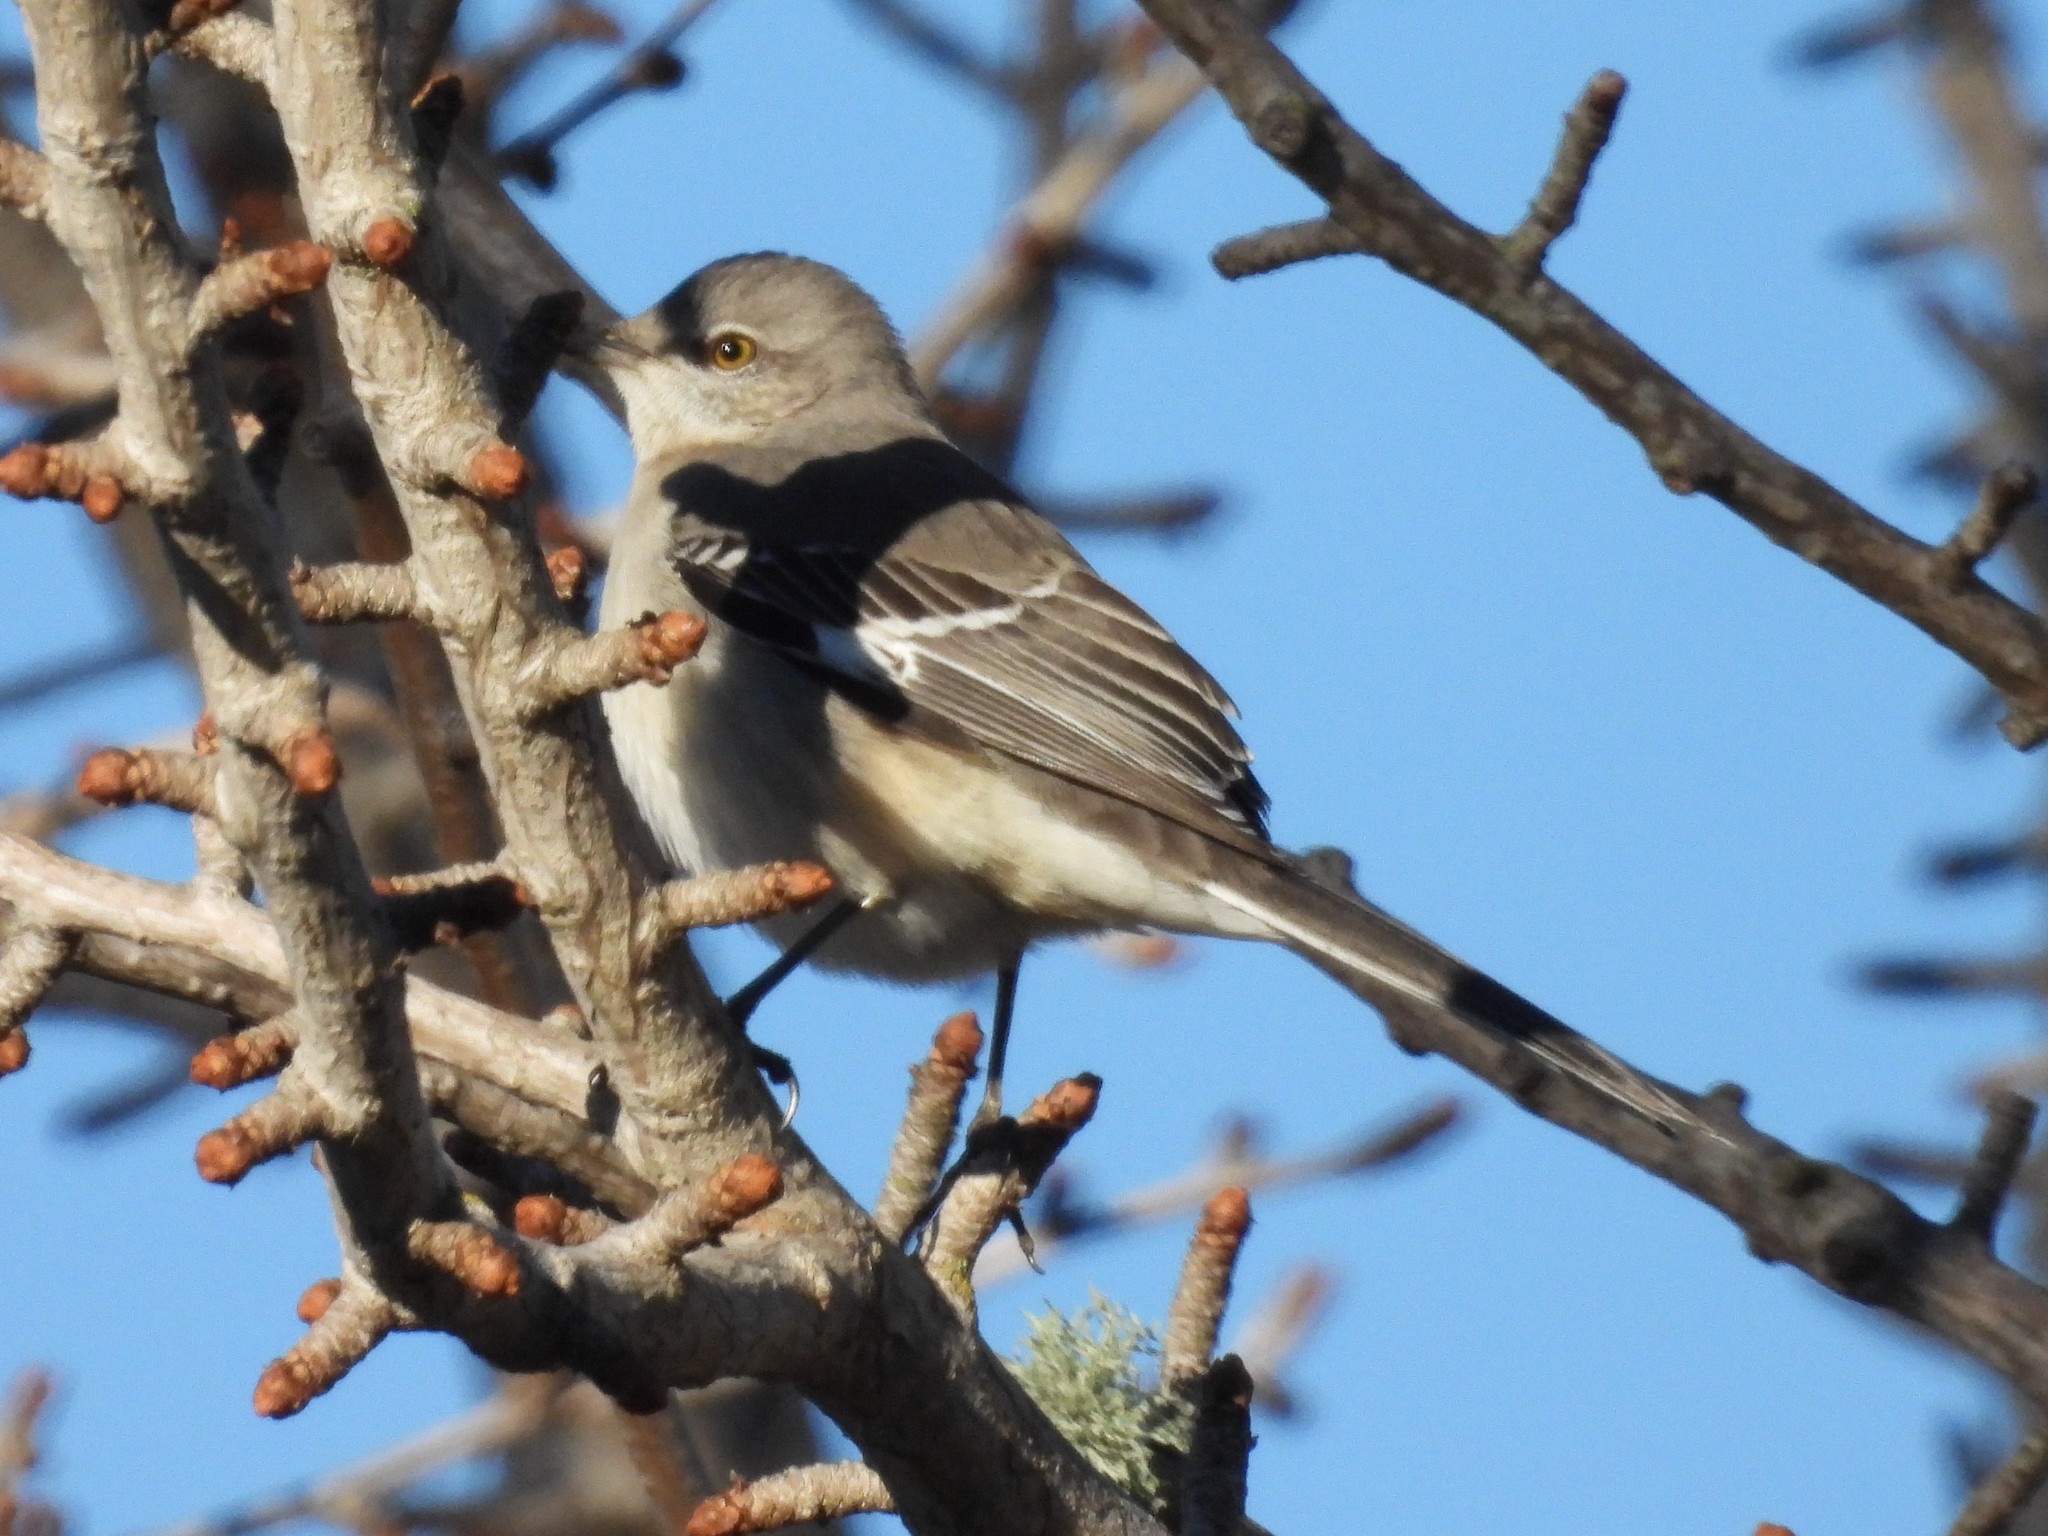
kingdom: Animalia
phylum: Chordata
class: Aves
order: Passeriformes
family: Mimidae
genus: Mimus
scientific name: Mimus polyglottos
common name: Northern mockingbird
